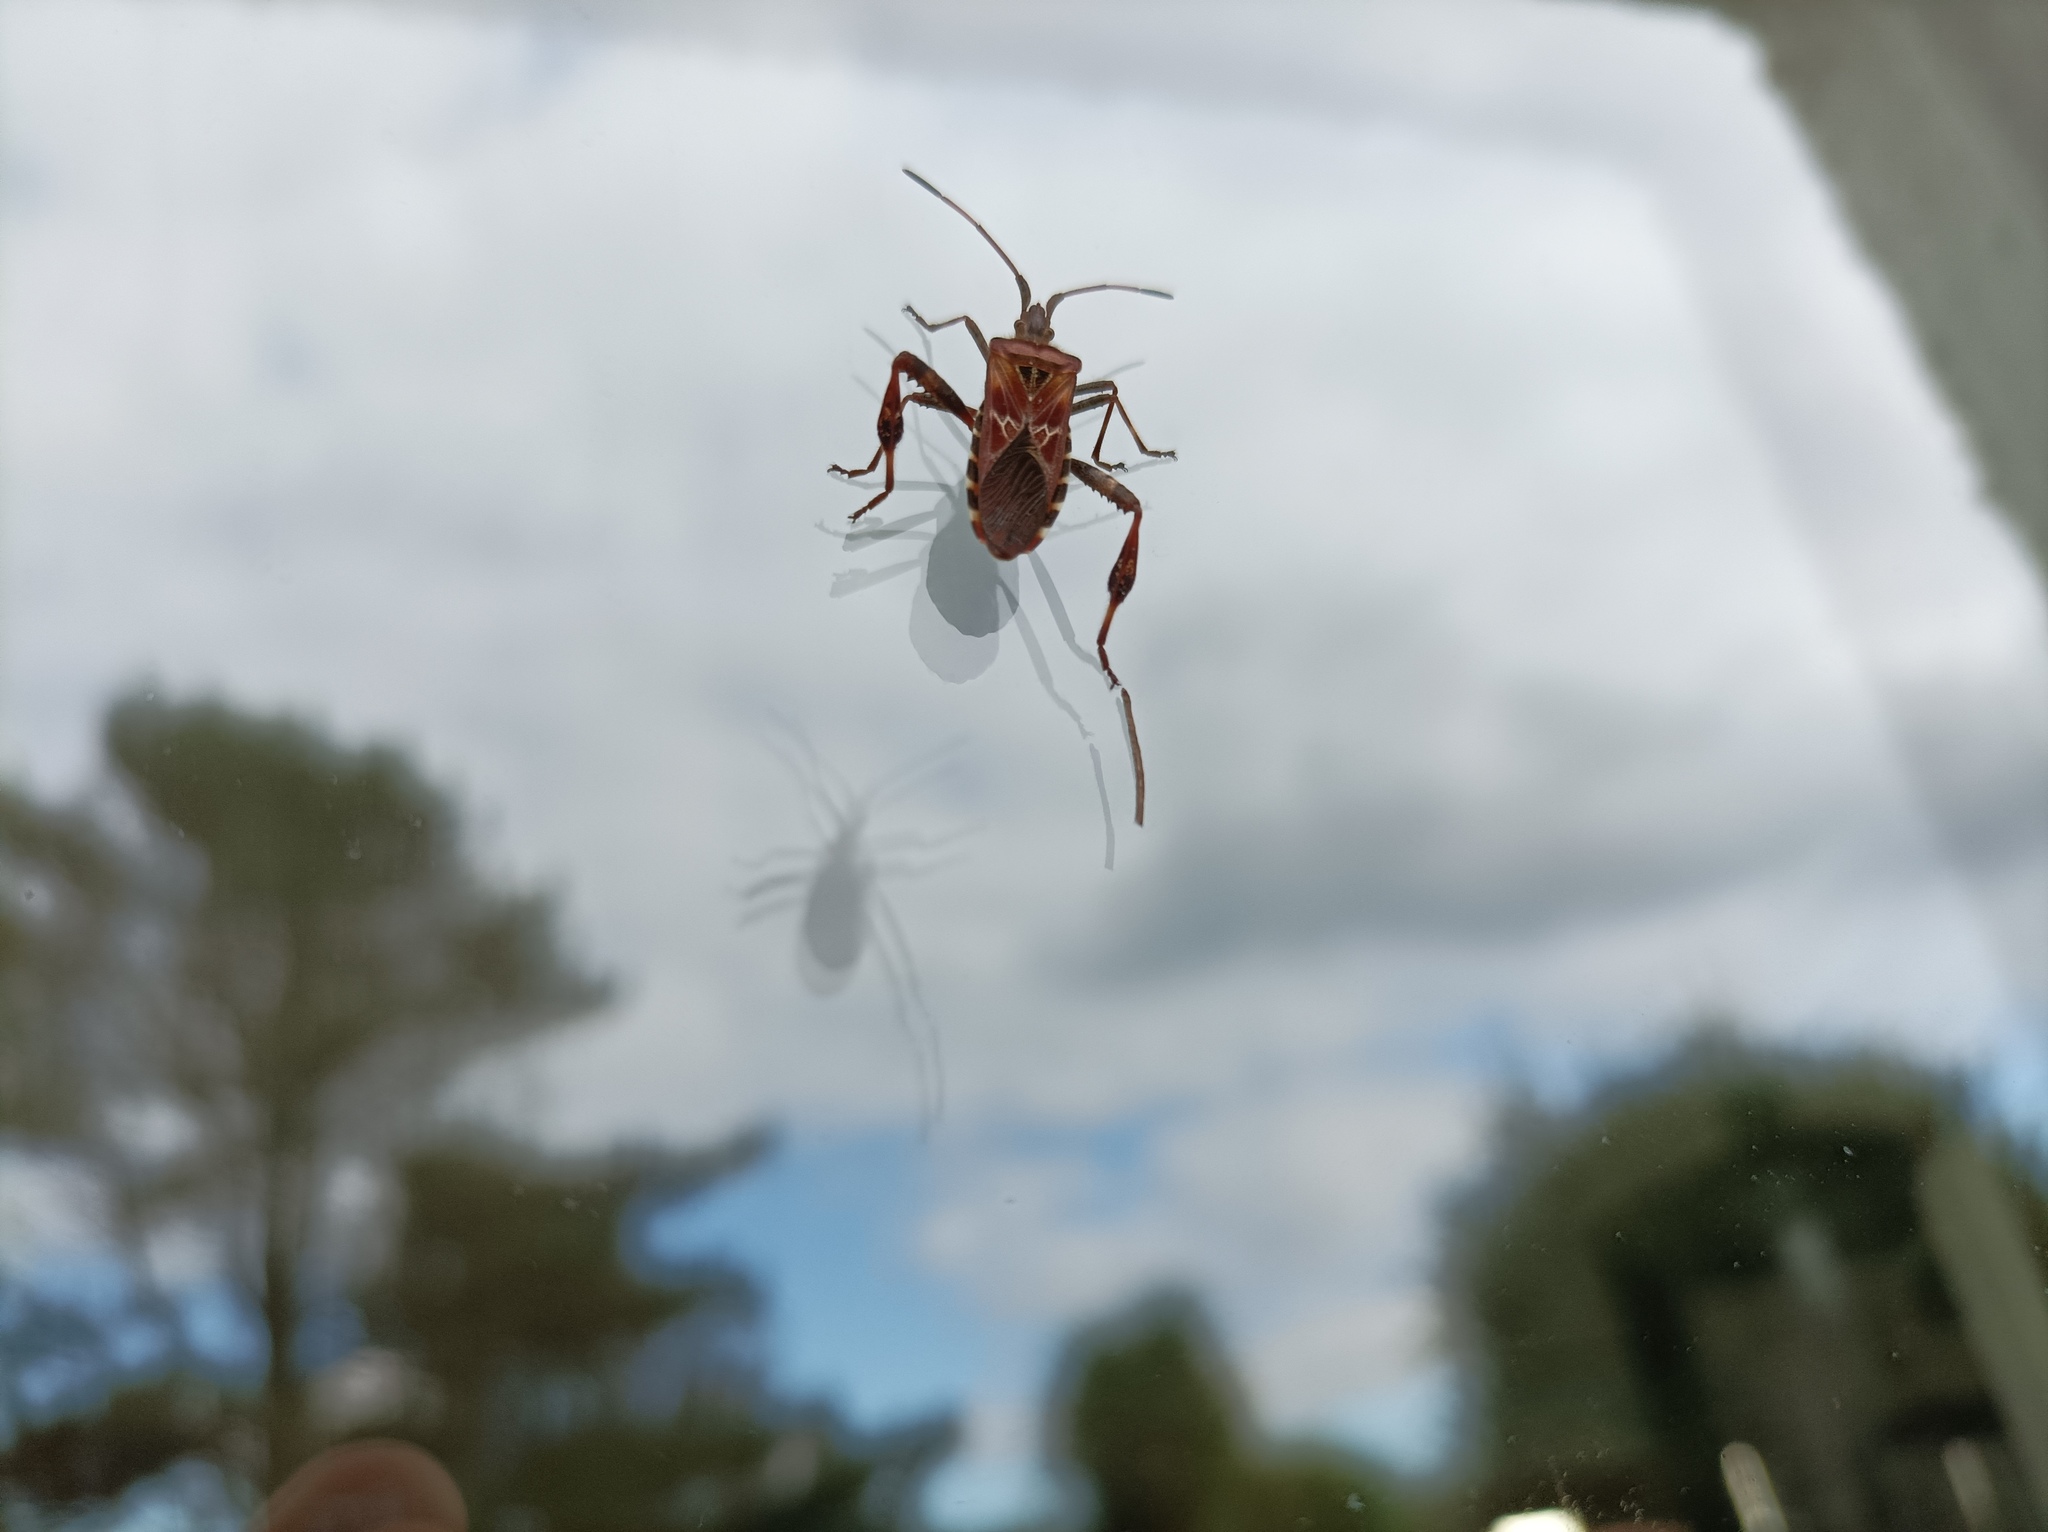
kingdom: Animalia
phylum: Arthropoda
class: Insecta
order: Hemiptera
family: Coreidae
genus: Leptoglossus
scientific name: Leptoglossus occidentalis
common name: Western conifer-seed bug
